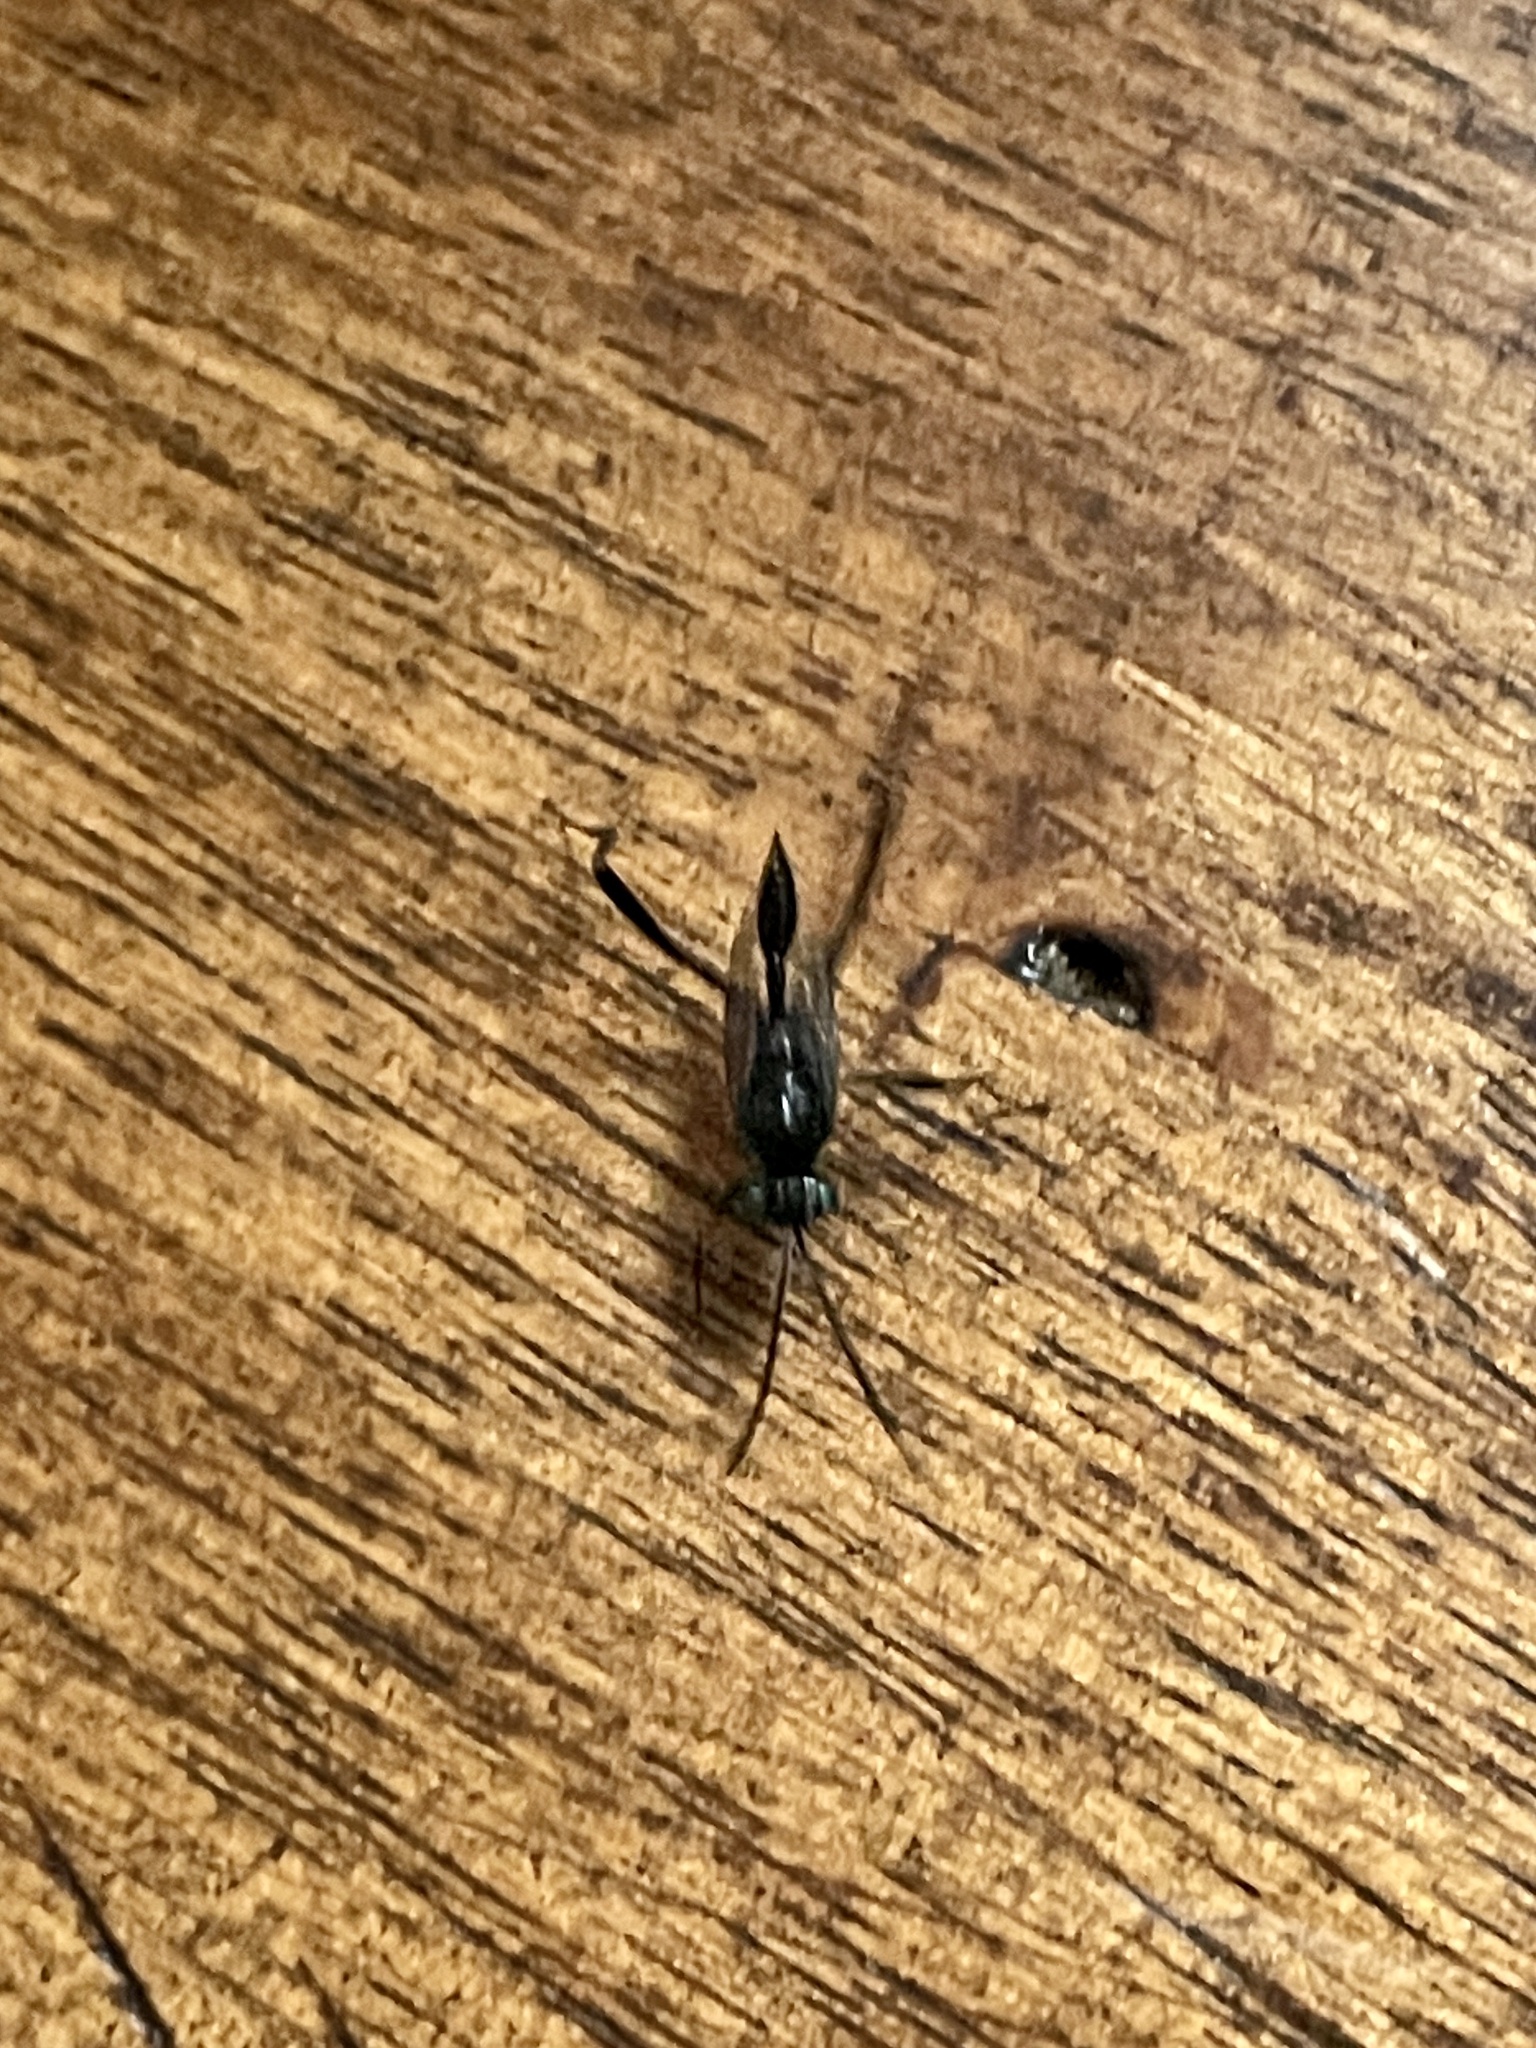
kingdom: Animalia
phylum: Arthropoda
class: Insecta
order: Hymenoptera
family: Evaniidae
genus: Evania
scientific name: Evania appendigaster
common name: Ensign wasp
